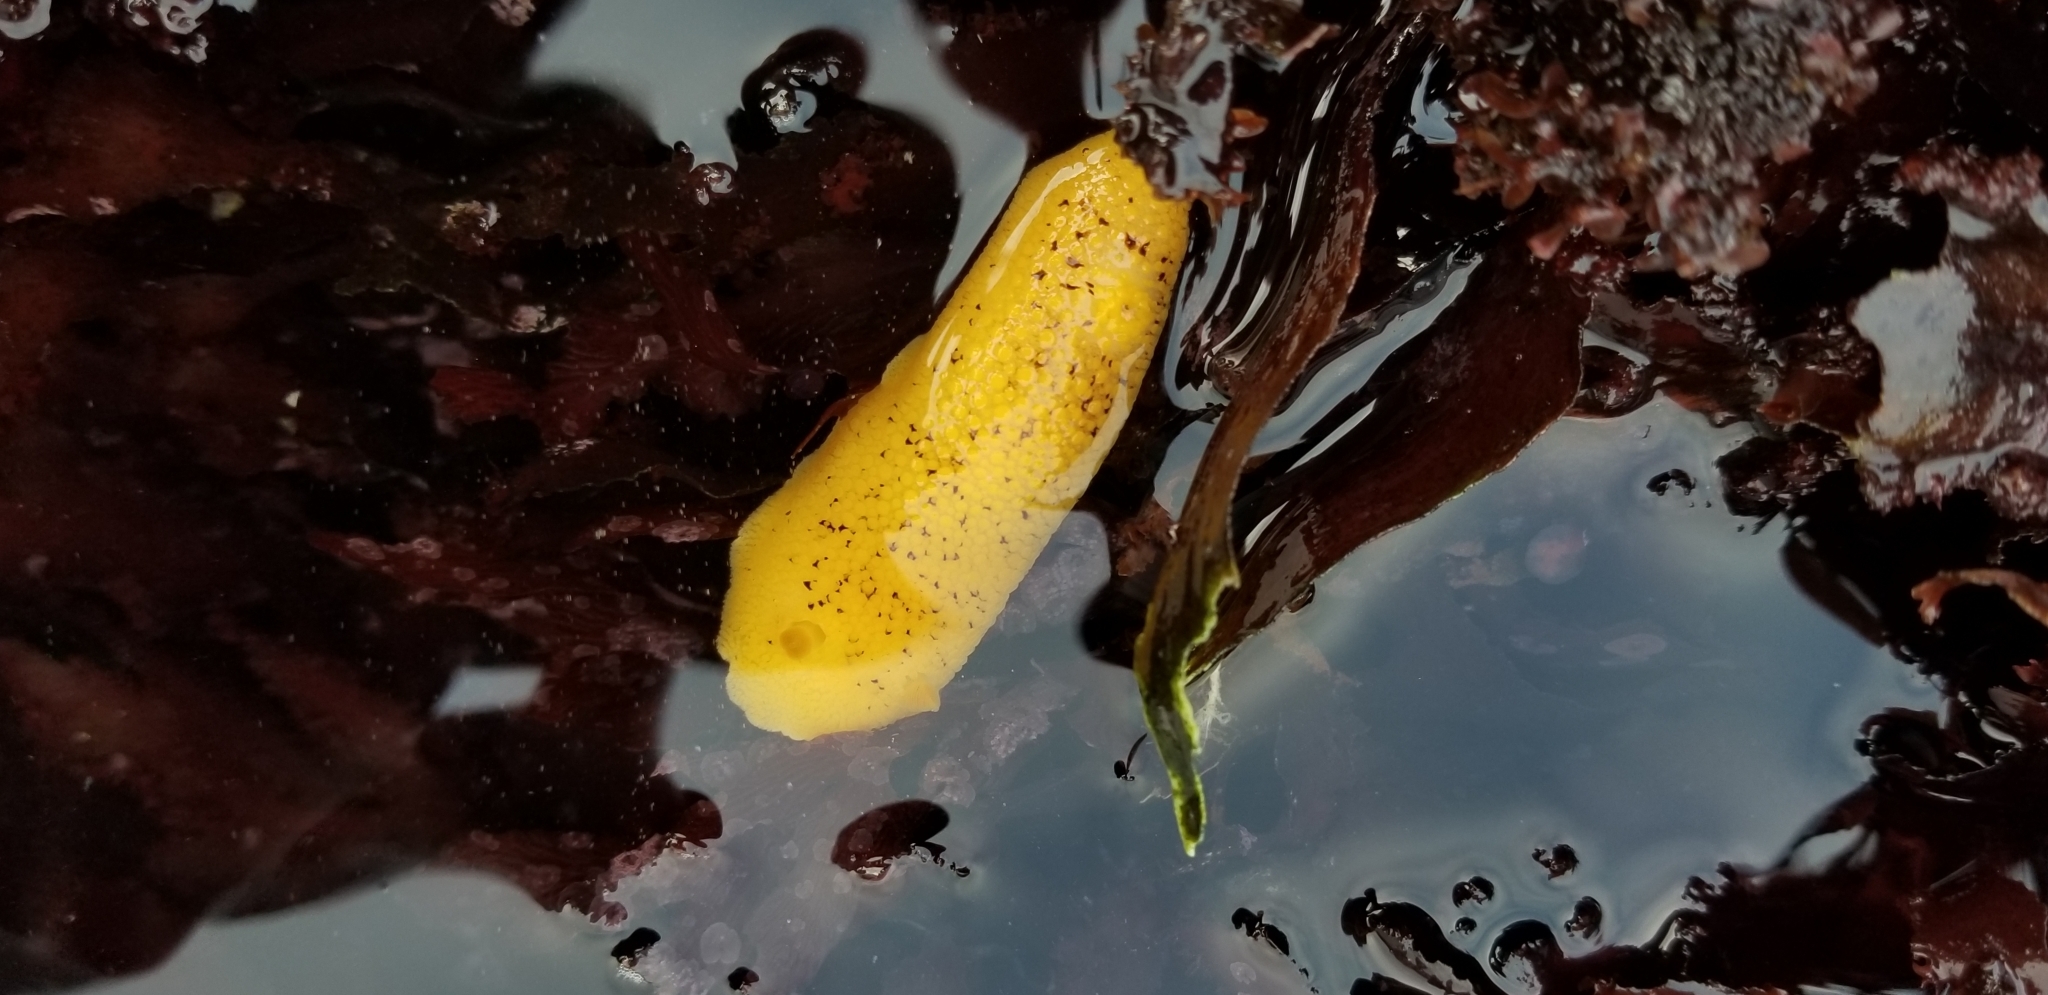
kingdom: Animalia
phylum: Mollusca
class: Gastropoda
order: Nudibranchia
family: Discodorididae
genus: Peltodoris
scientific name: Peltodoris nobilis
